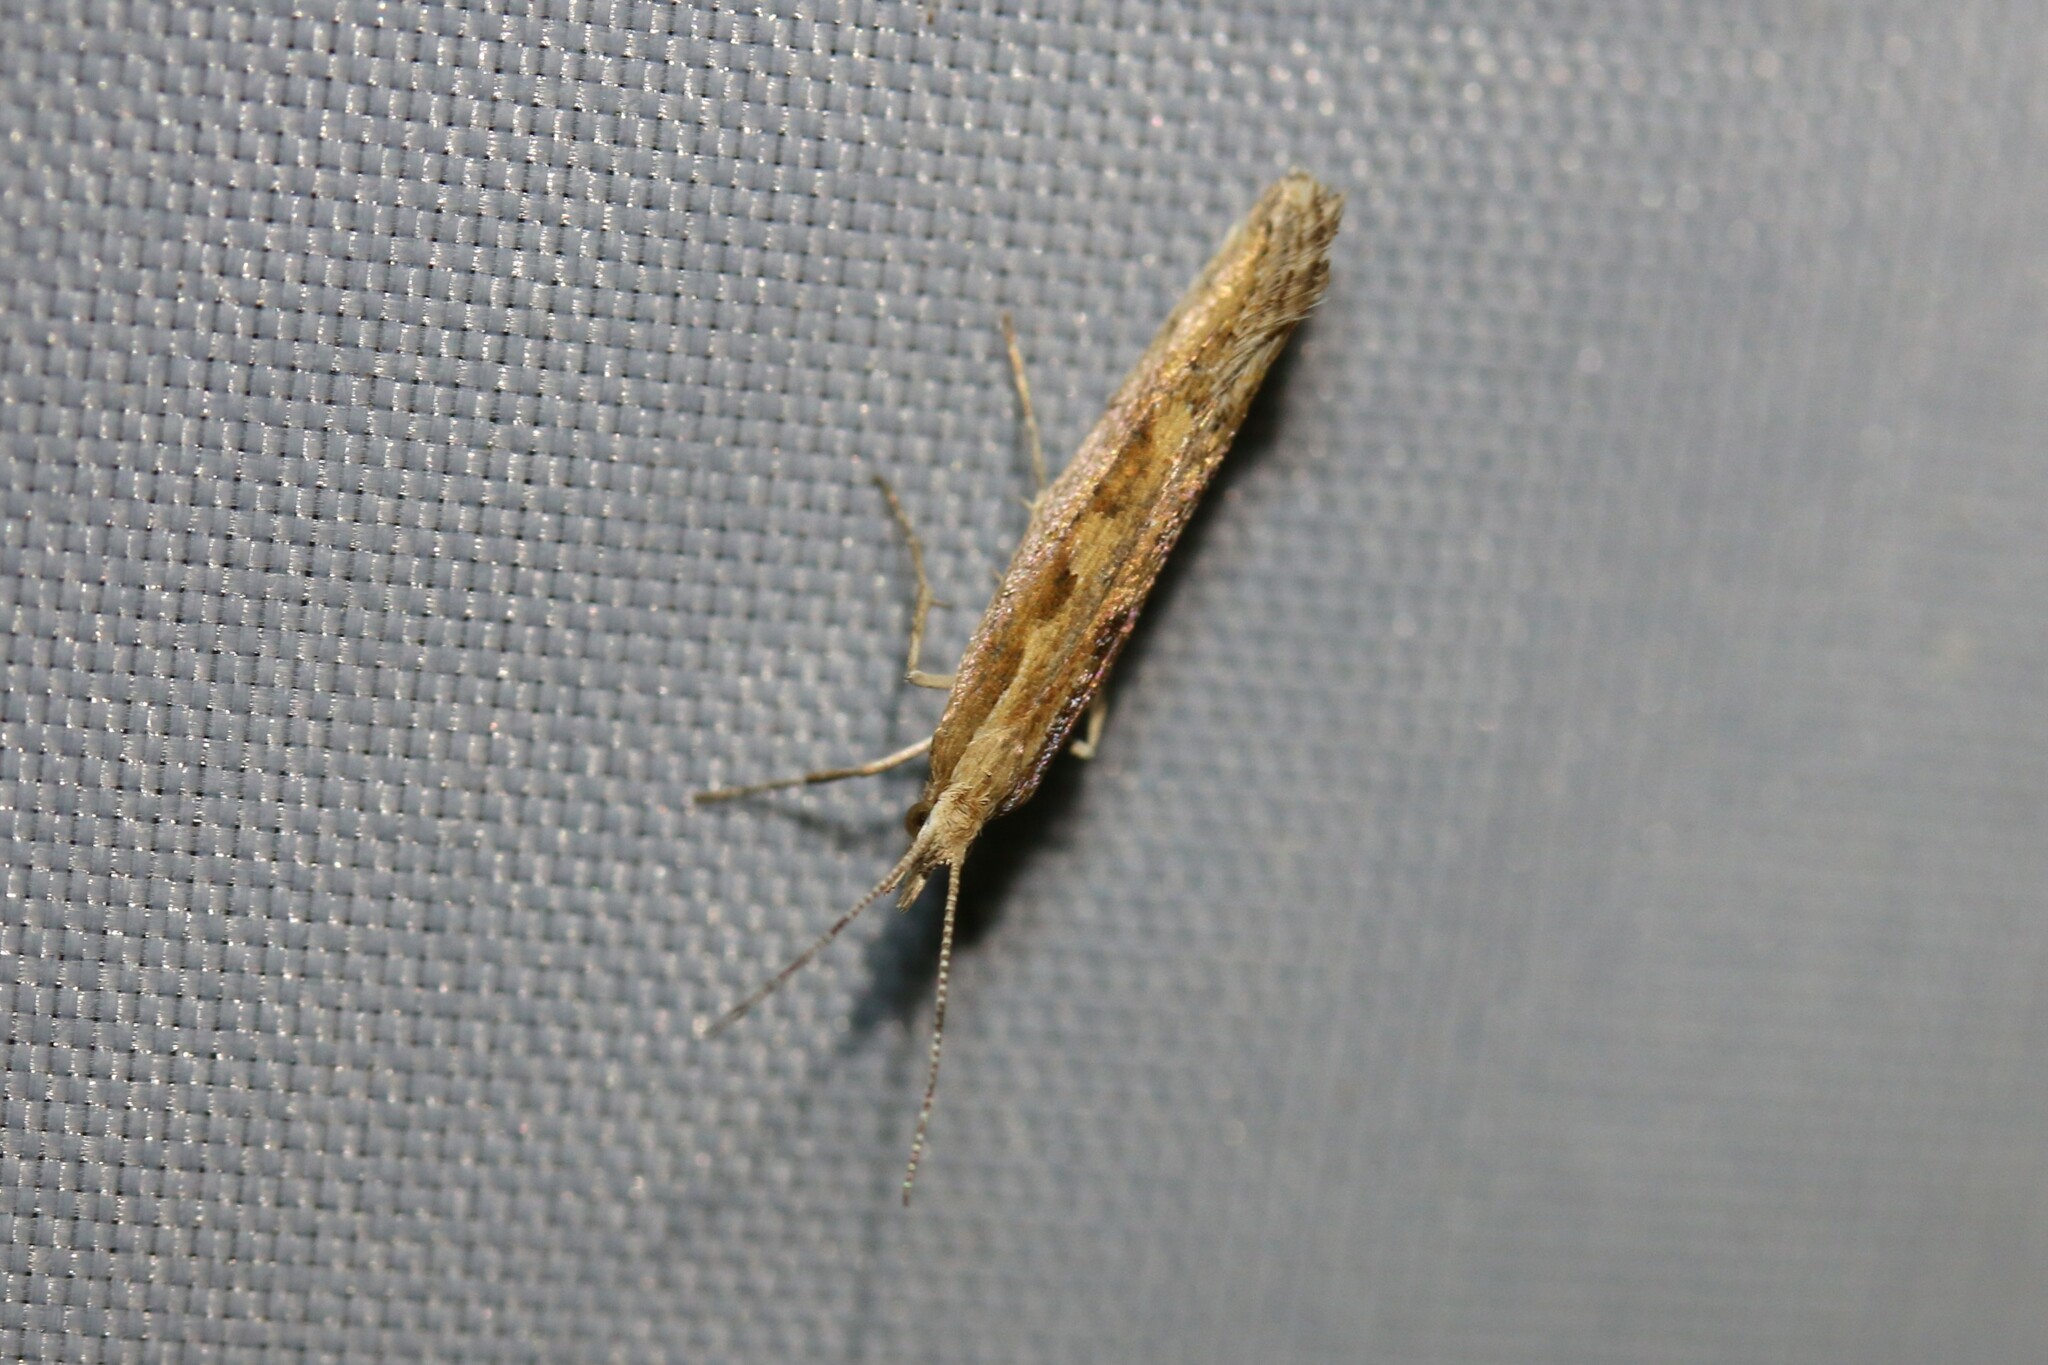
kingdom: Animalia
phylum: Arthropoda
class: Insecta
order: Lepidoptera
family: Plutellidae
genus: Plutella
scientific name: Plutella xylostella
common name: Diamond-back moth
